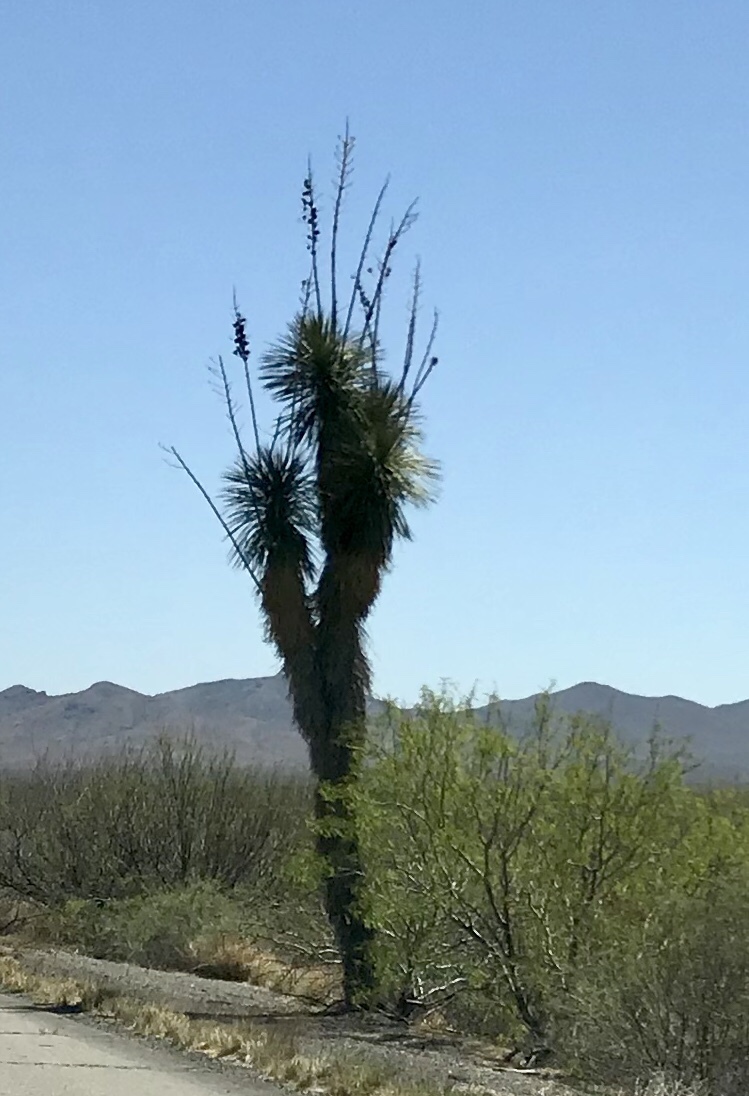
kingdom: Plantae
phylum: Tracheophyta
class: Liliopsida
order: Asparagales
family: Asparagaceae
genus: Yucca
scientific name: Yucca elata
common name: Palmella
